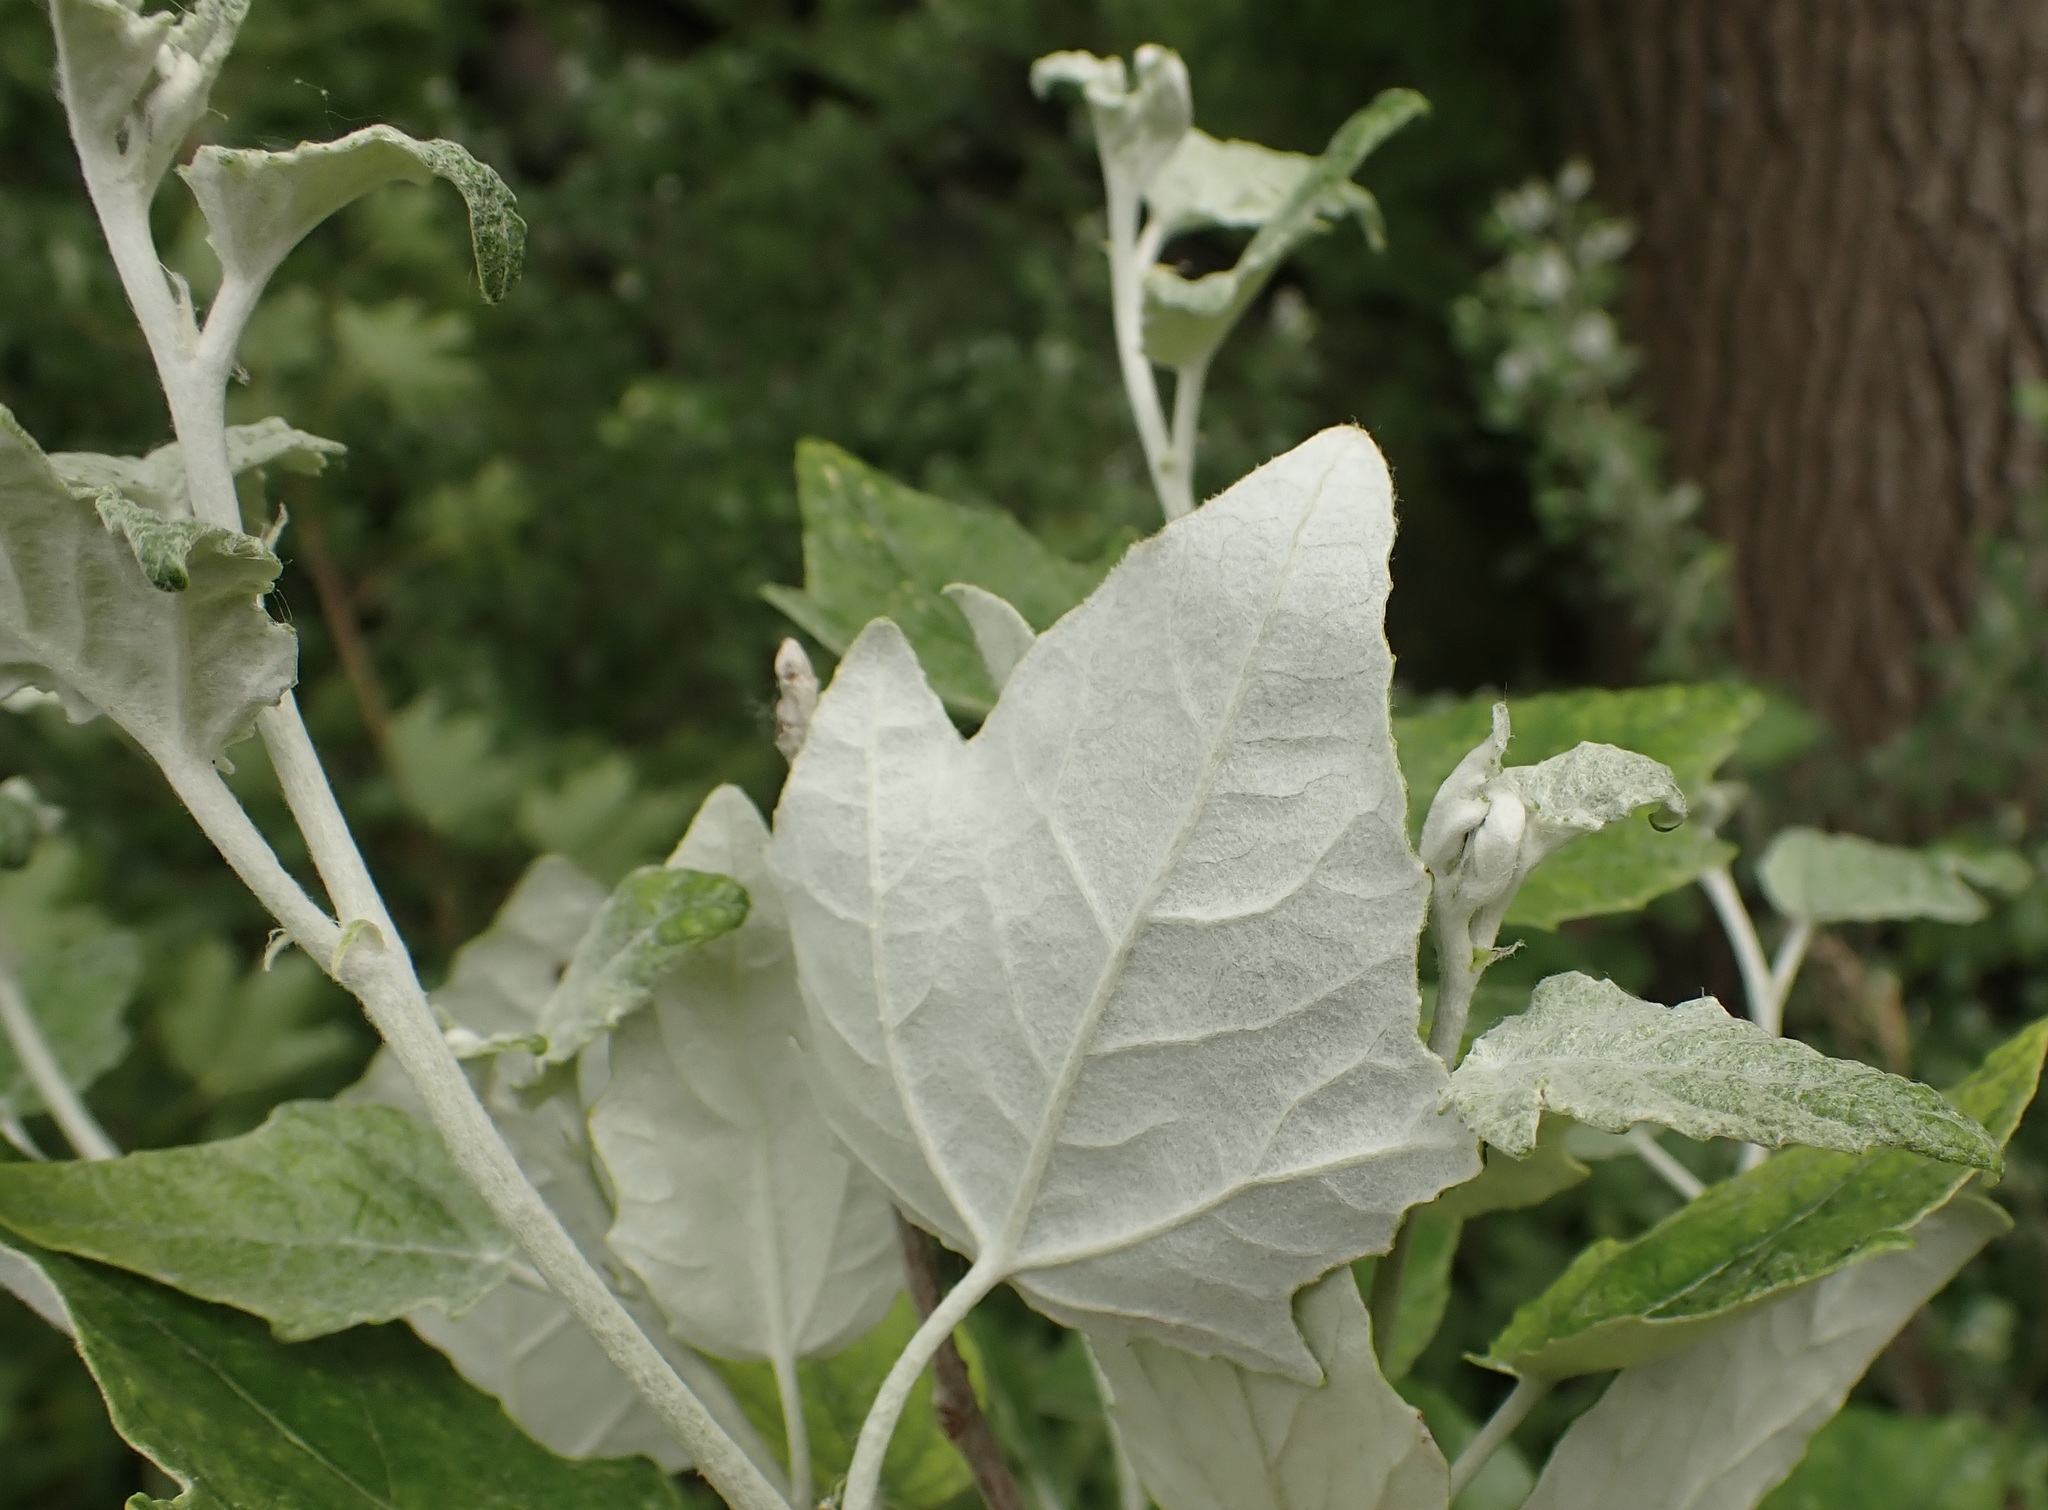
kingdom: Plantae
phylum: Tracheophyta
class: Magnoliopsida
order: Malpighiales
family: Salicaceae
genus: Populus
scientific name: Populus alba
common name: White poplar
